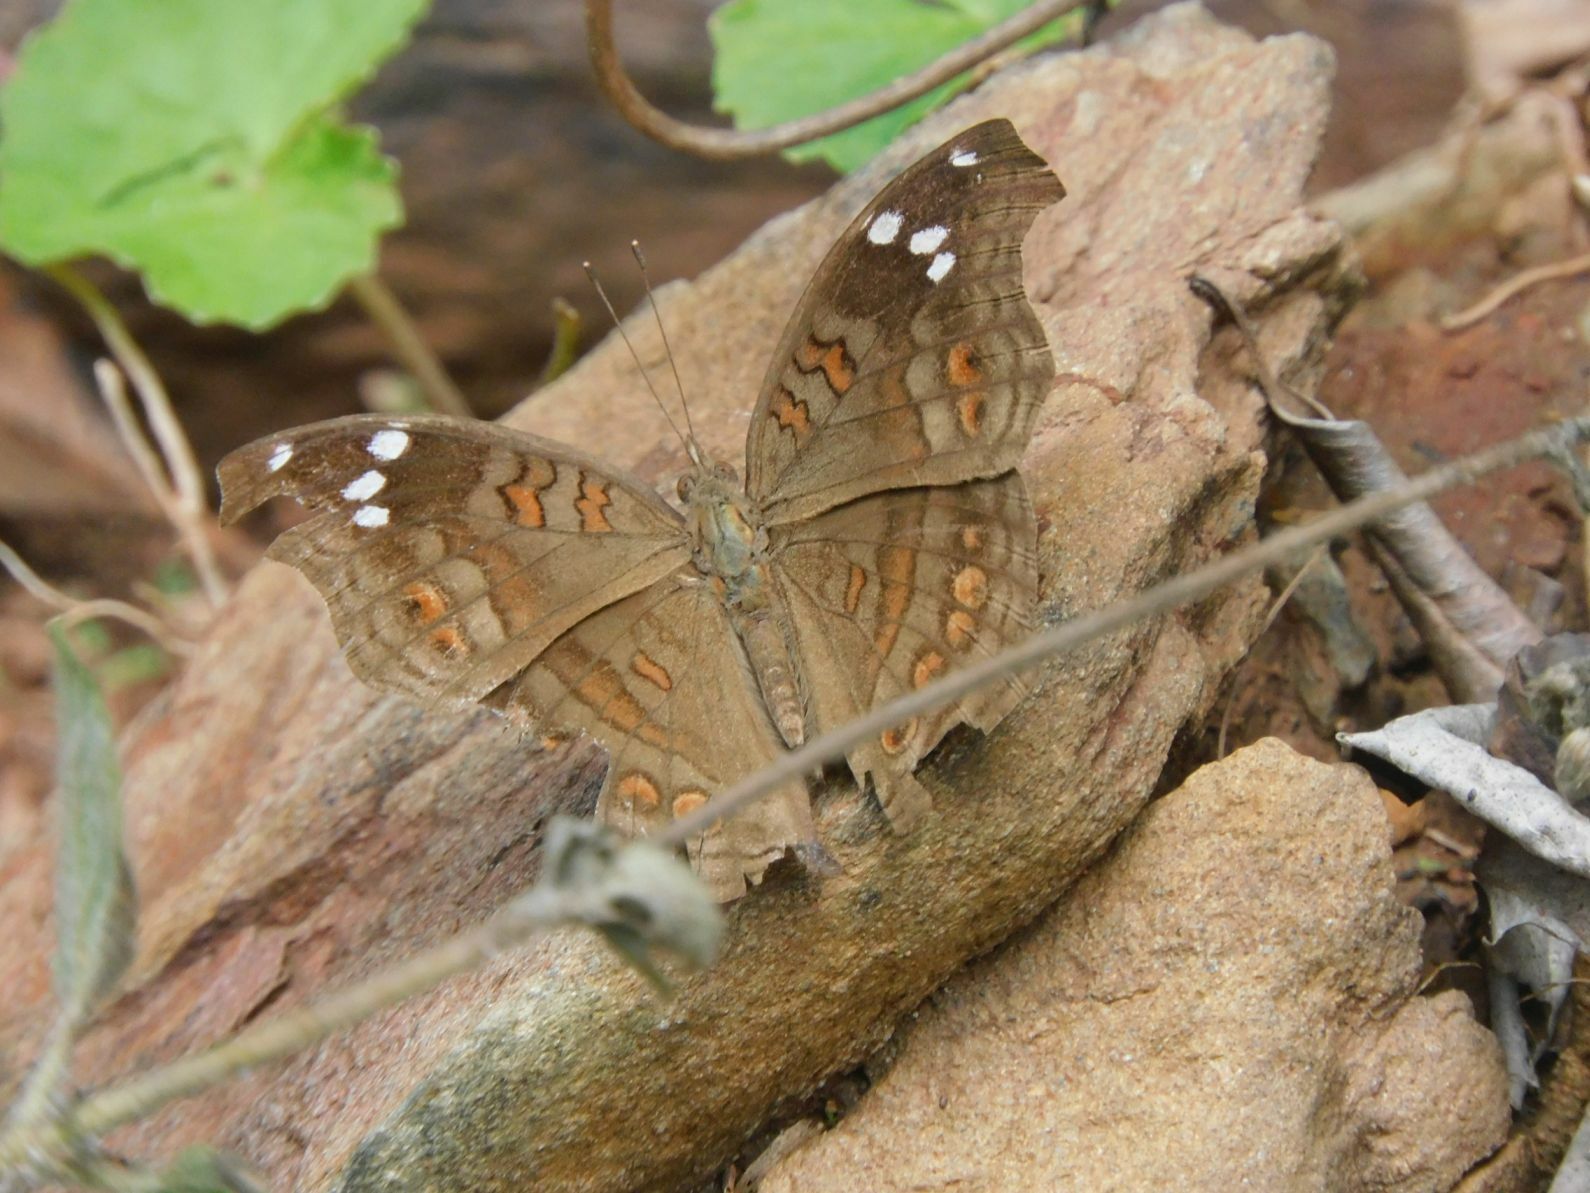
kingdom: Animalia
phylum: Arthropoda
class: Insecta
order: Lepidoptera
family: Nymphalidae
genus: Junonia
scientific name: Junonia natalica
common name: Brown pansy
